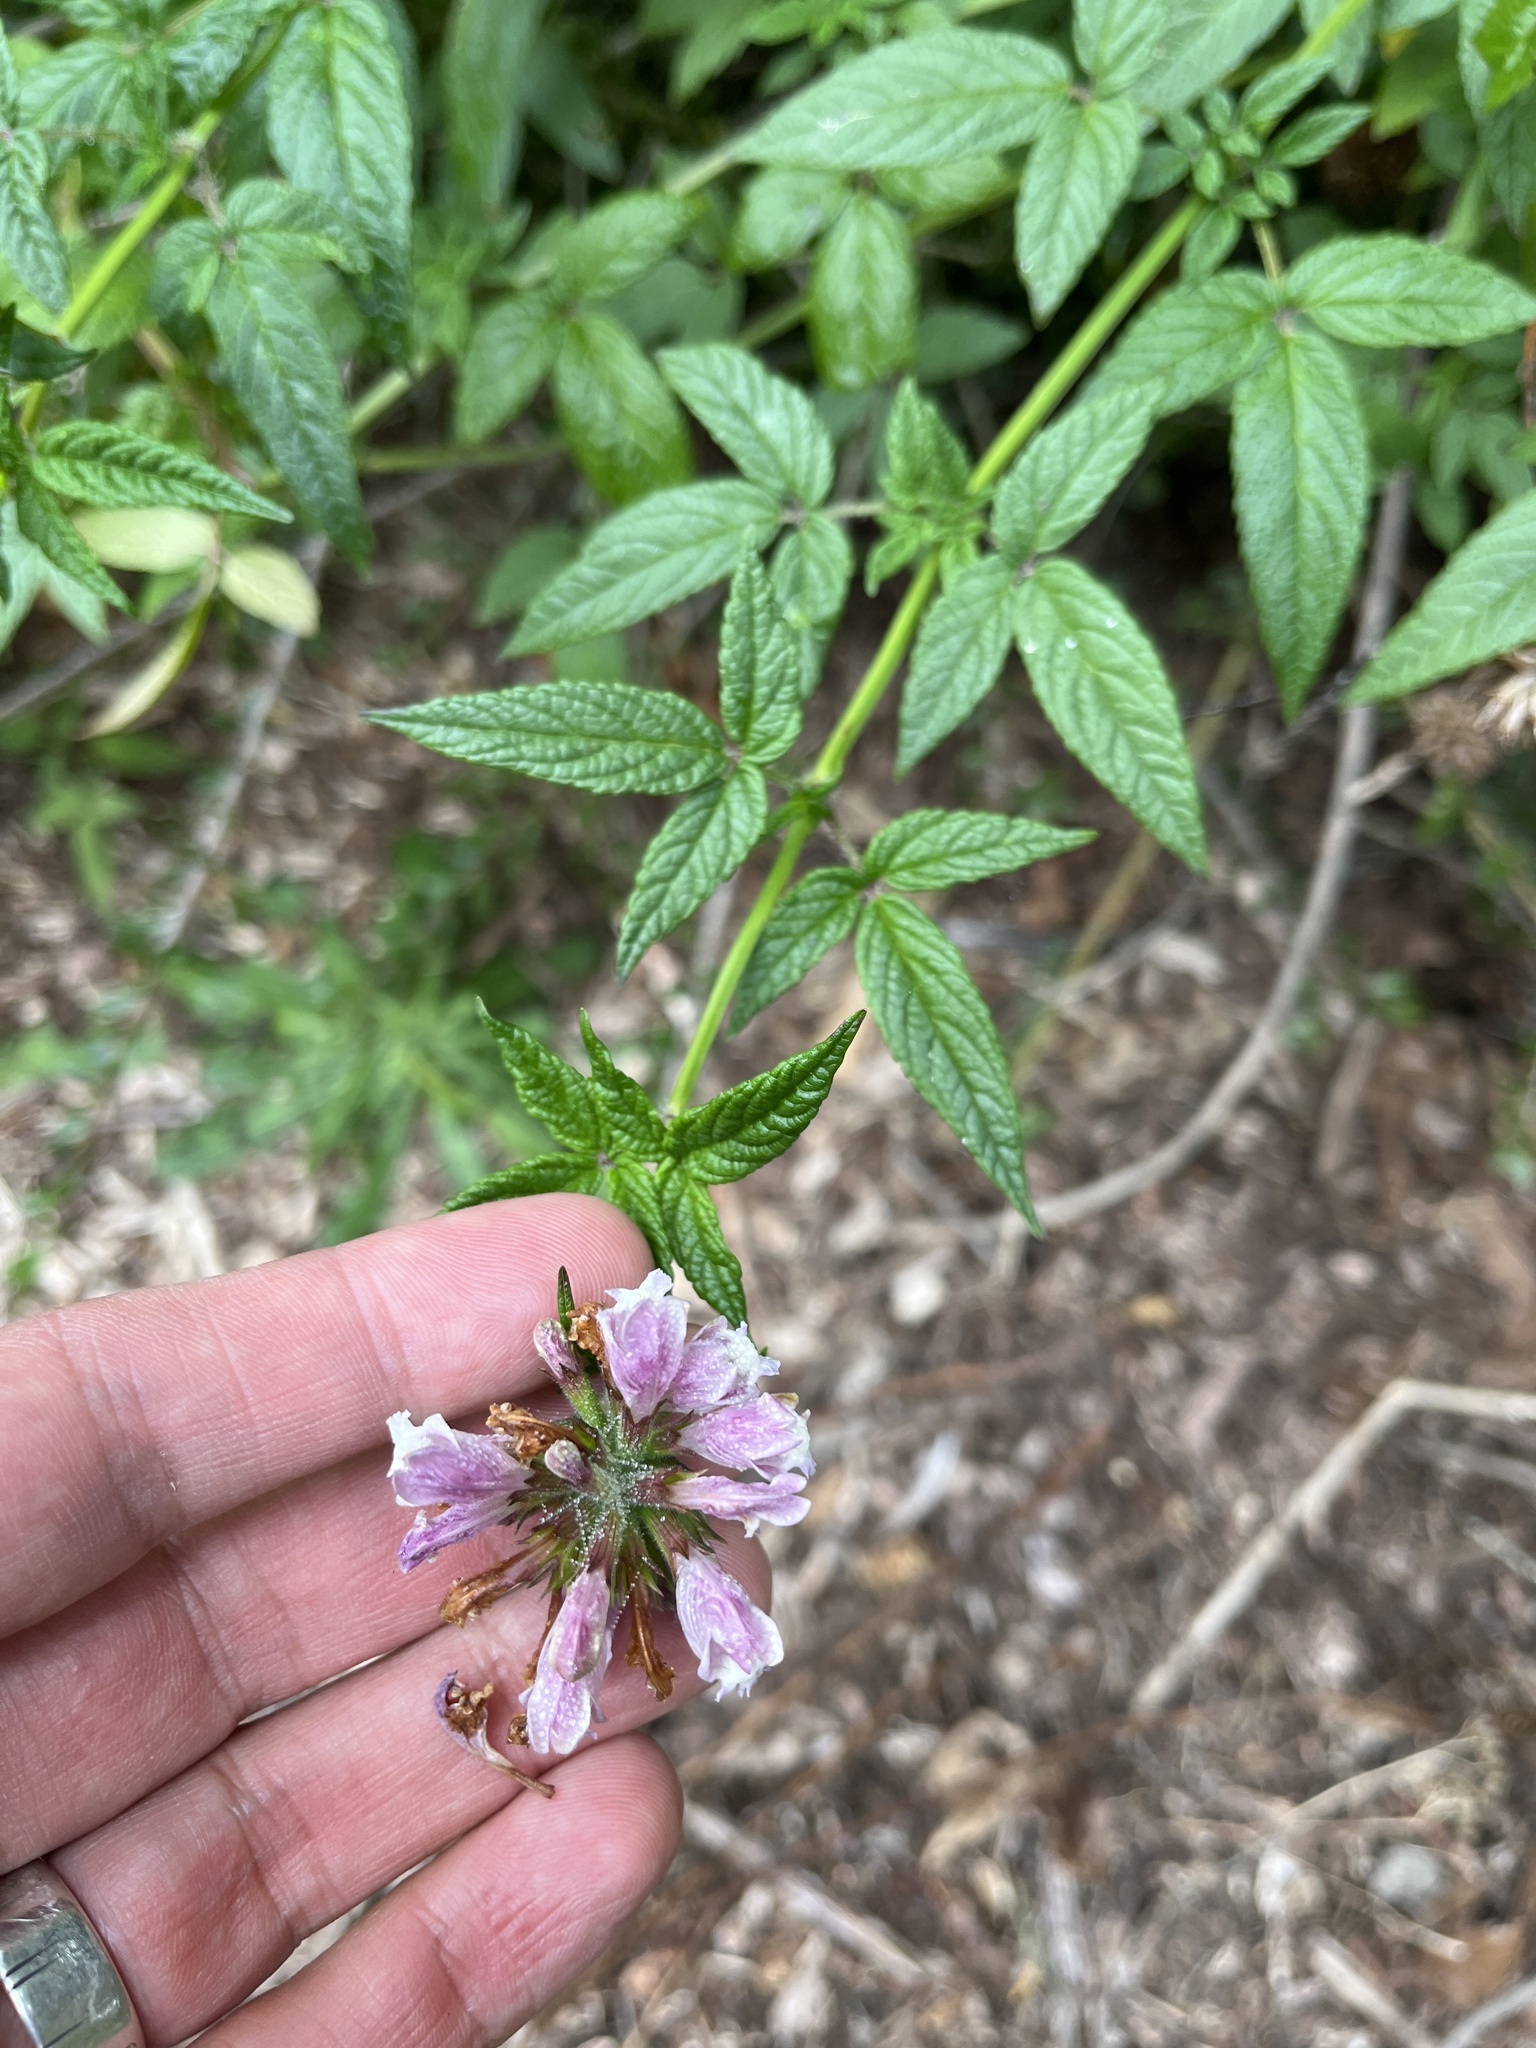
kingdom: Plantae
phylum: Tracheophyta
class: Magnoliopsida
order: Lamiales
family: Lamiaceae
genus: Cedronella
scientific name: Cedronella canariensis
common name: Canary islands balm
